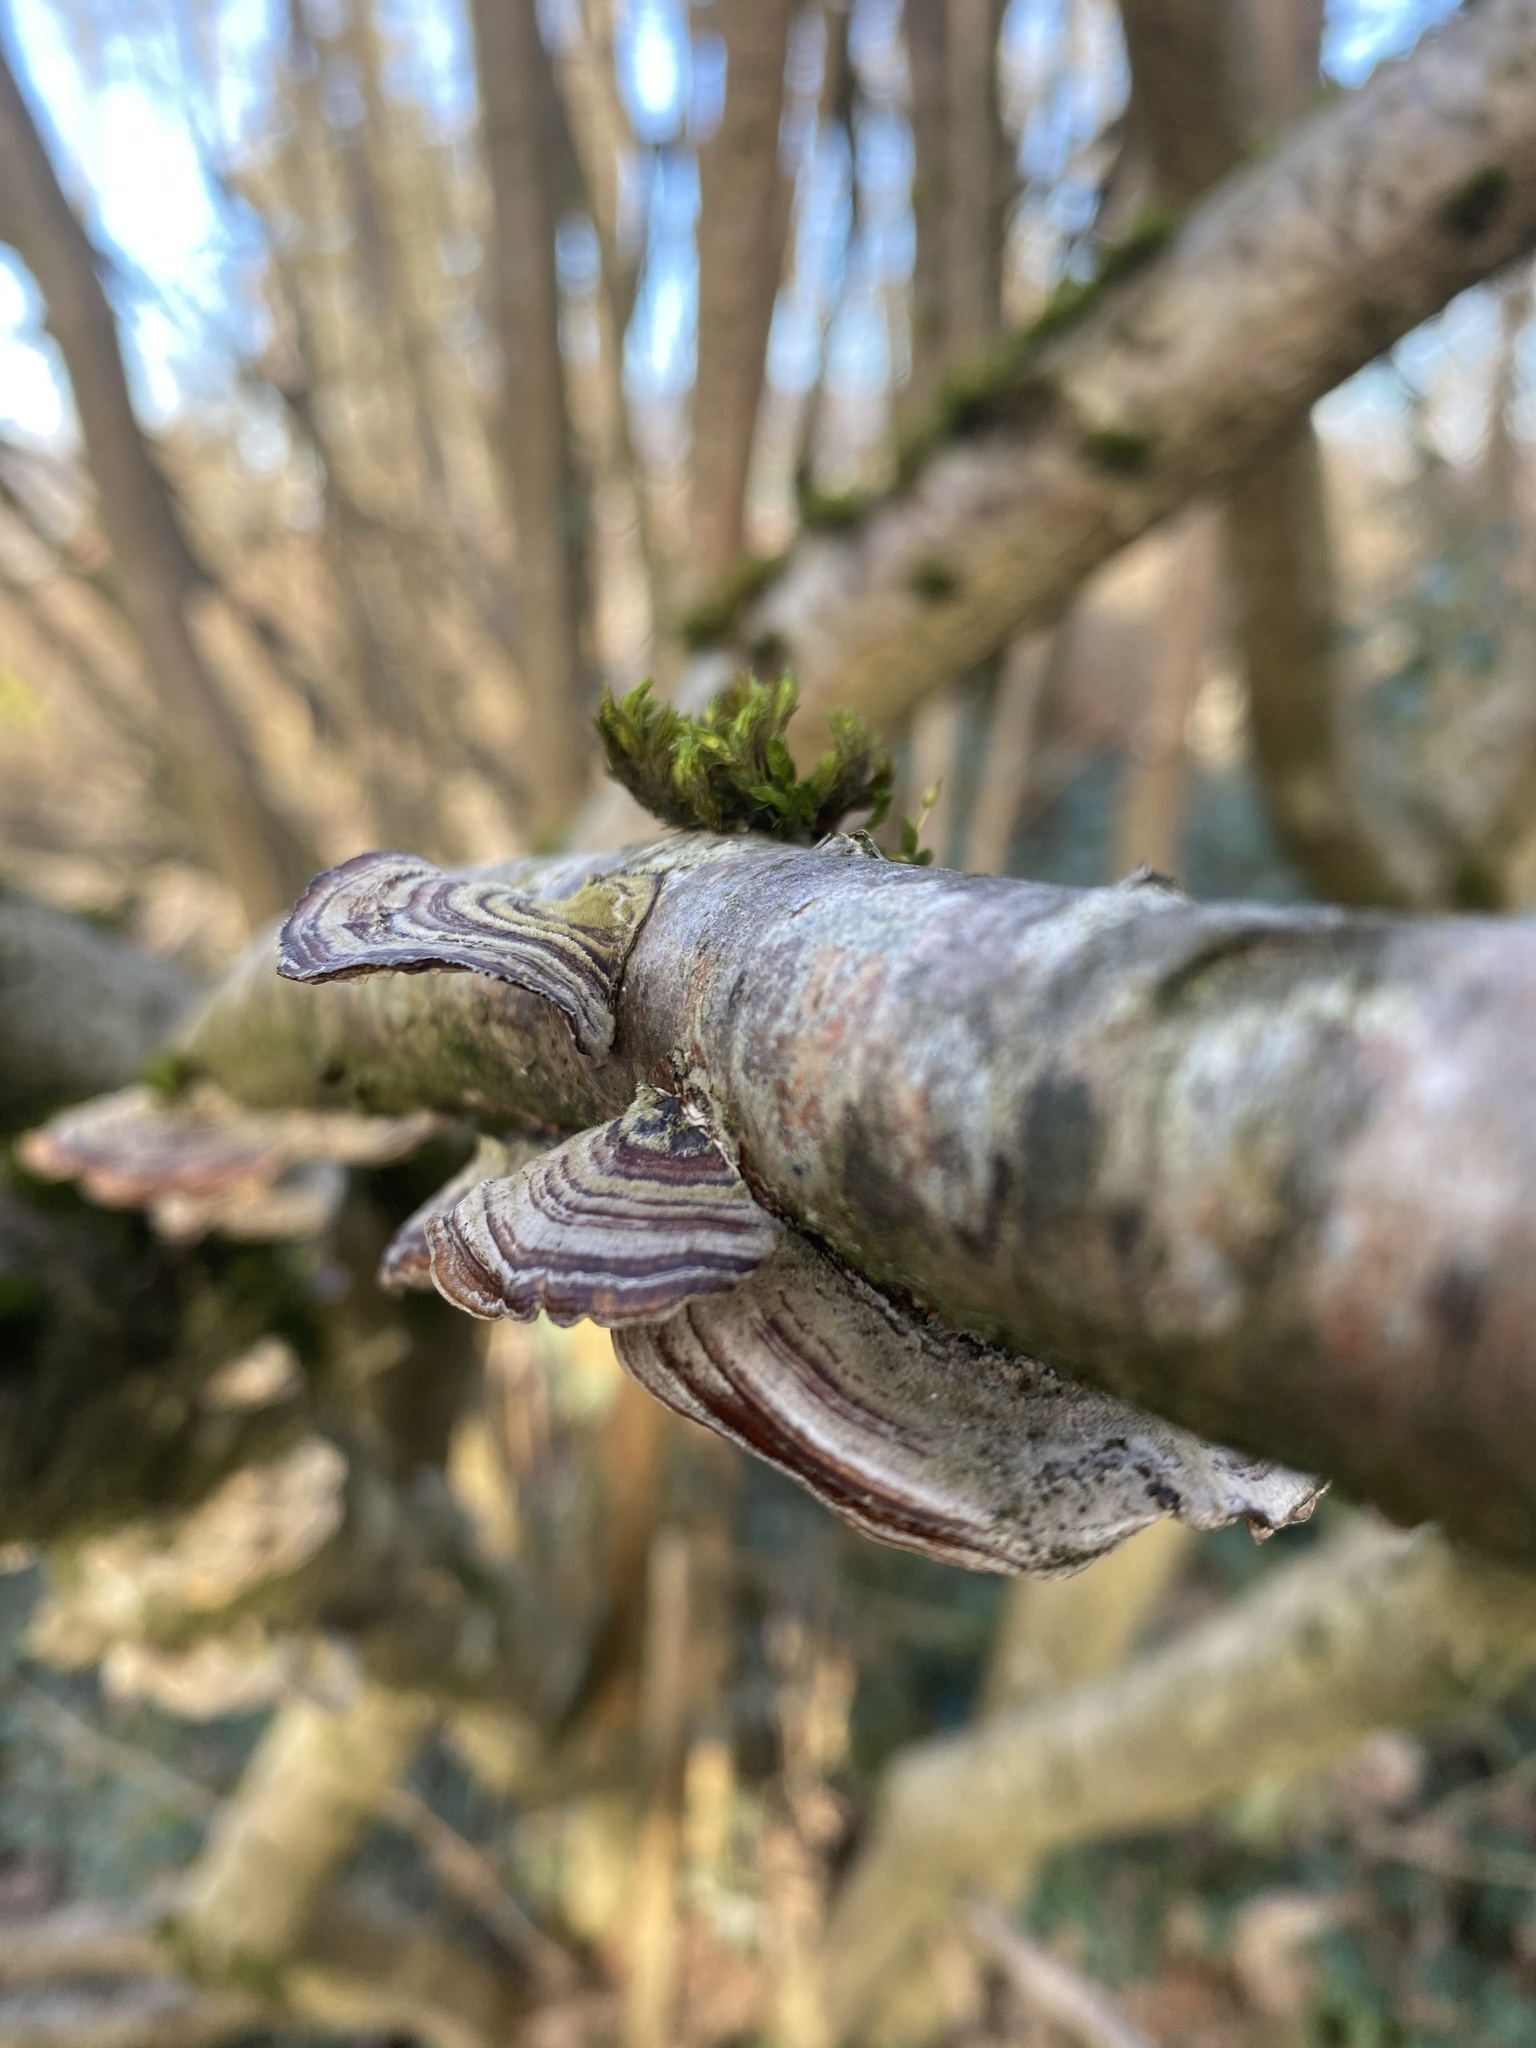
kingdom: Fungi
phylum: Basidiomycota
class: Agaricomycetes
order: Polyporales
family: Polyporaceae
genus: Trametes
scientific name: Trametes versicolor
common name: Turkeytail
